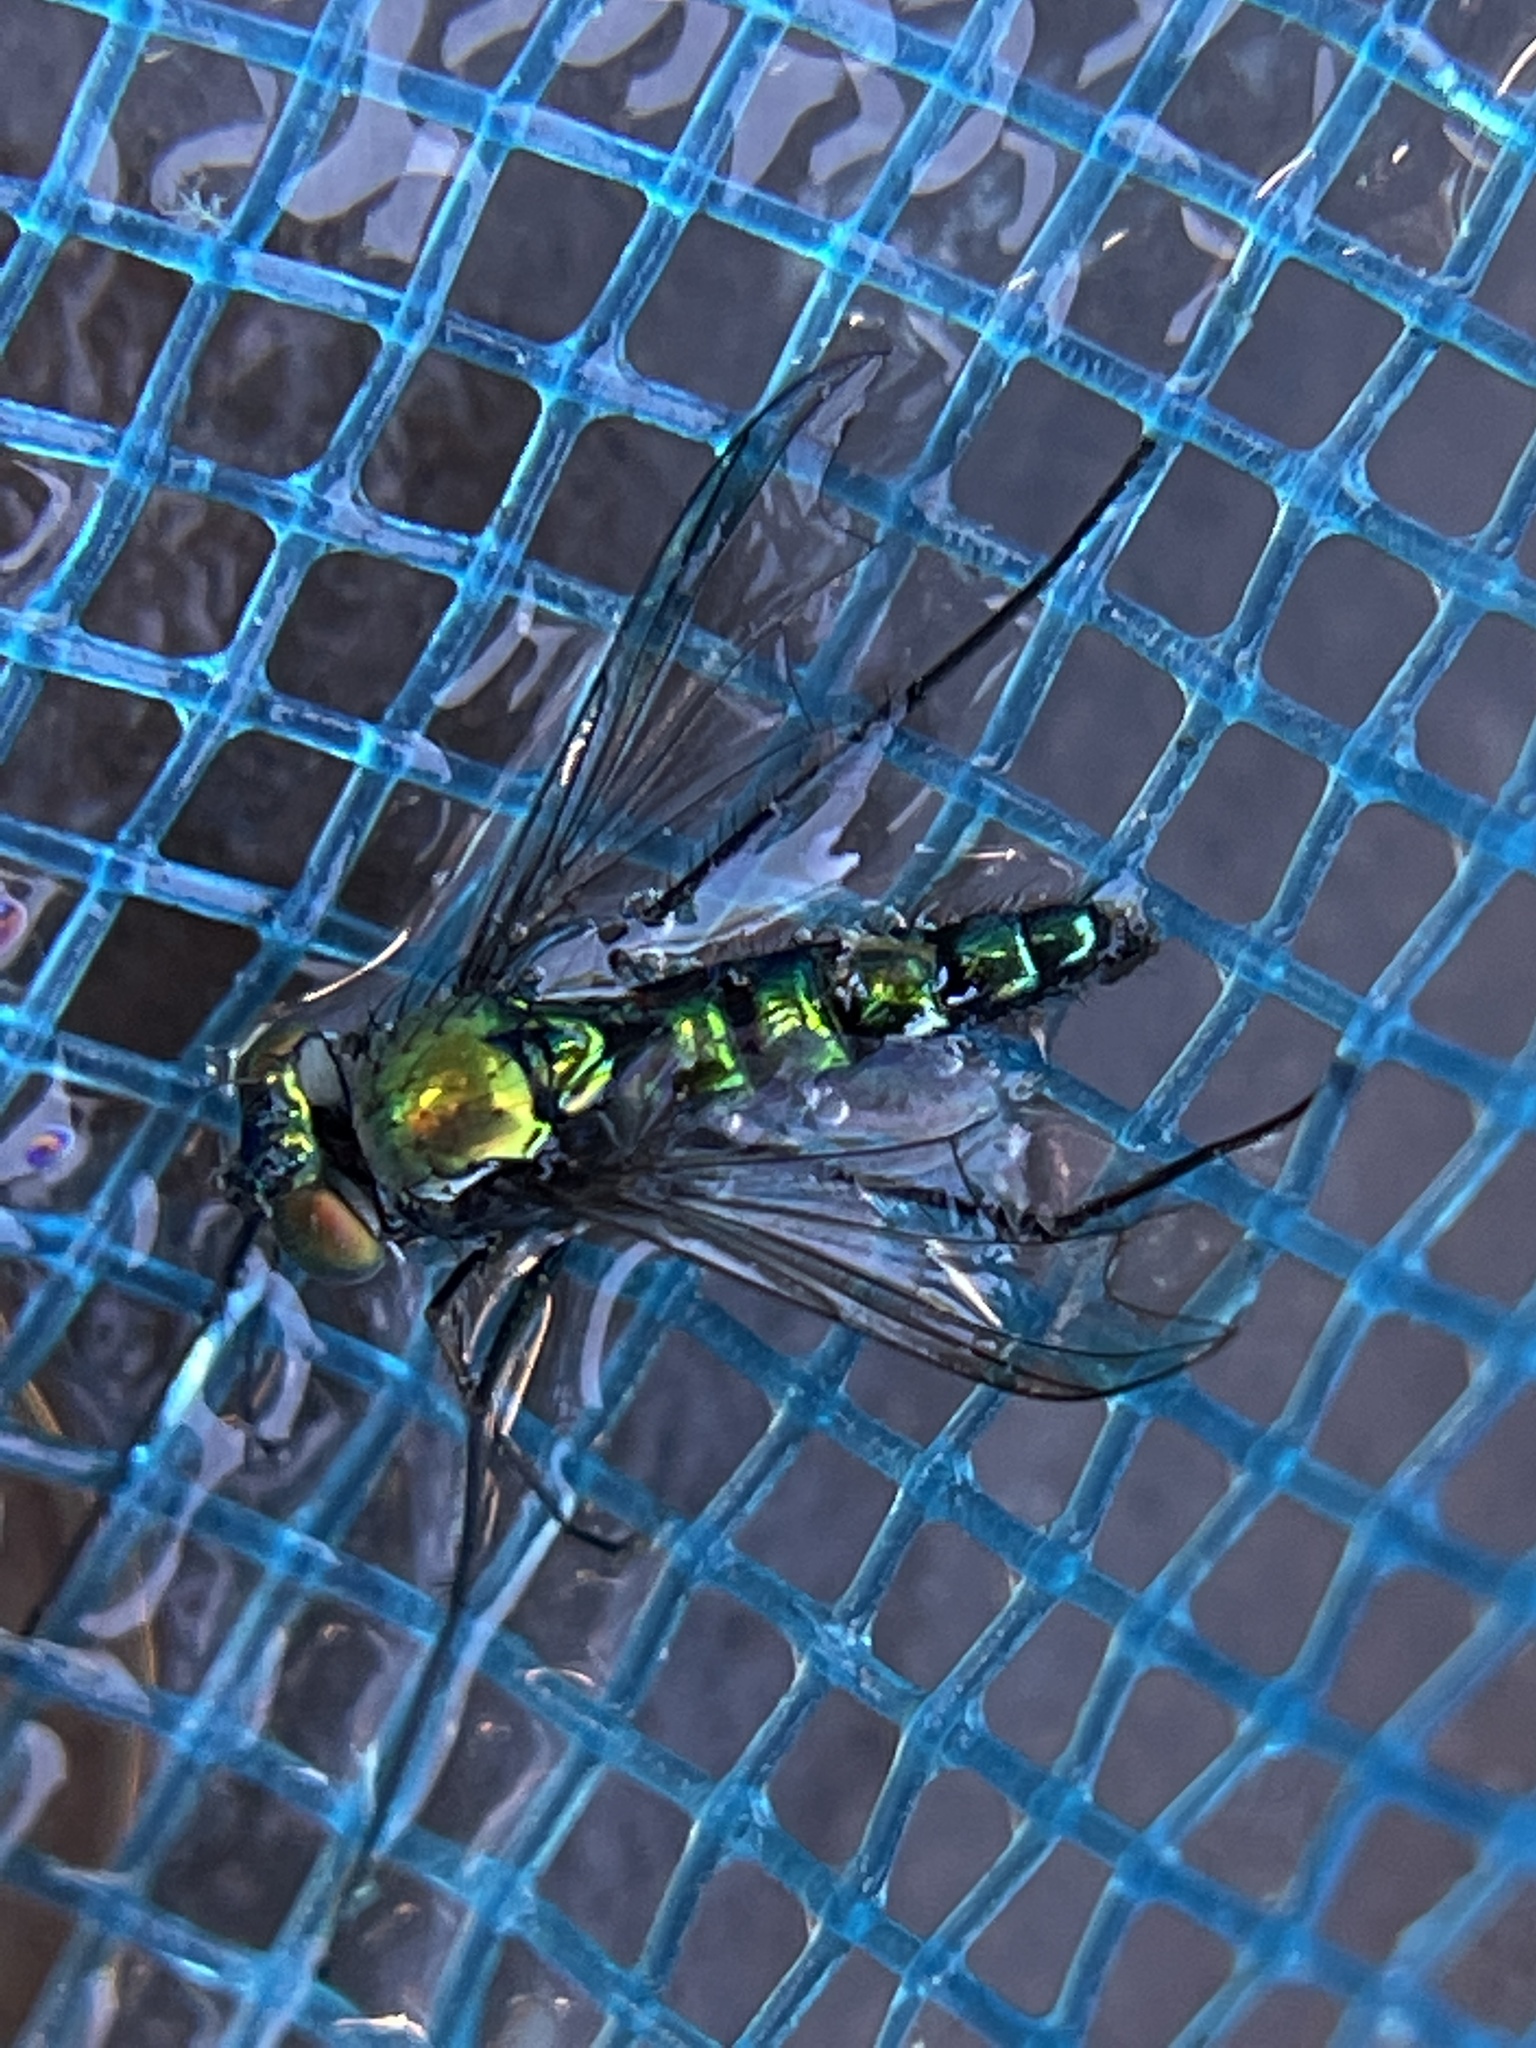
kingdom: Animalia
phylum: Arthropoda
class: Insecta
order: Diptera
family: Dolichopodidae
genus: Condylostylus
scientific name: Condylostylus longicornis
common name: Long-legged fly
